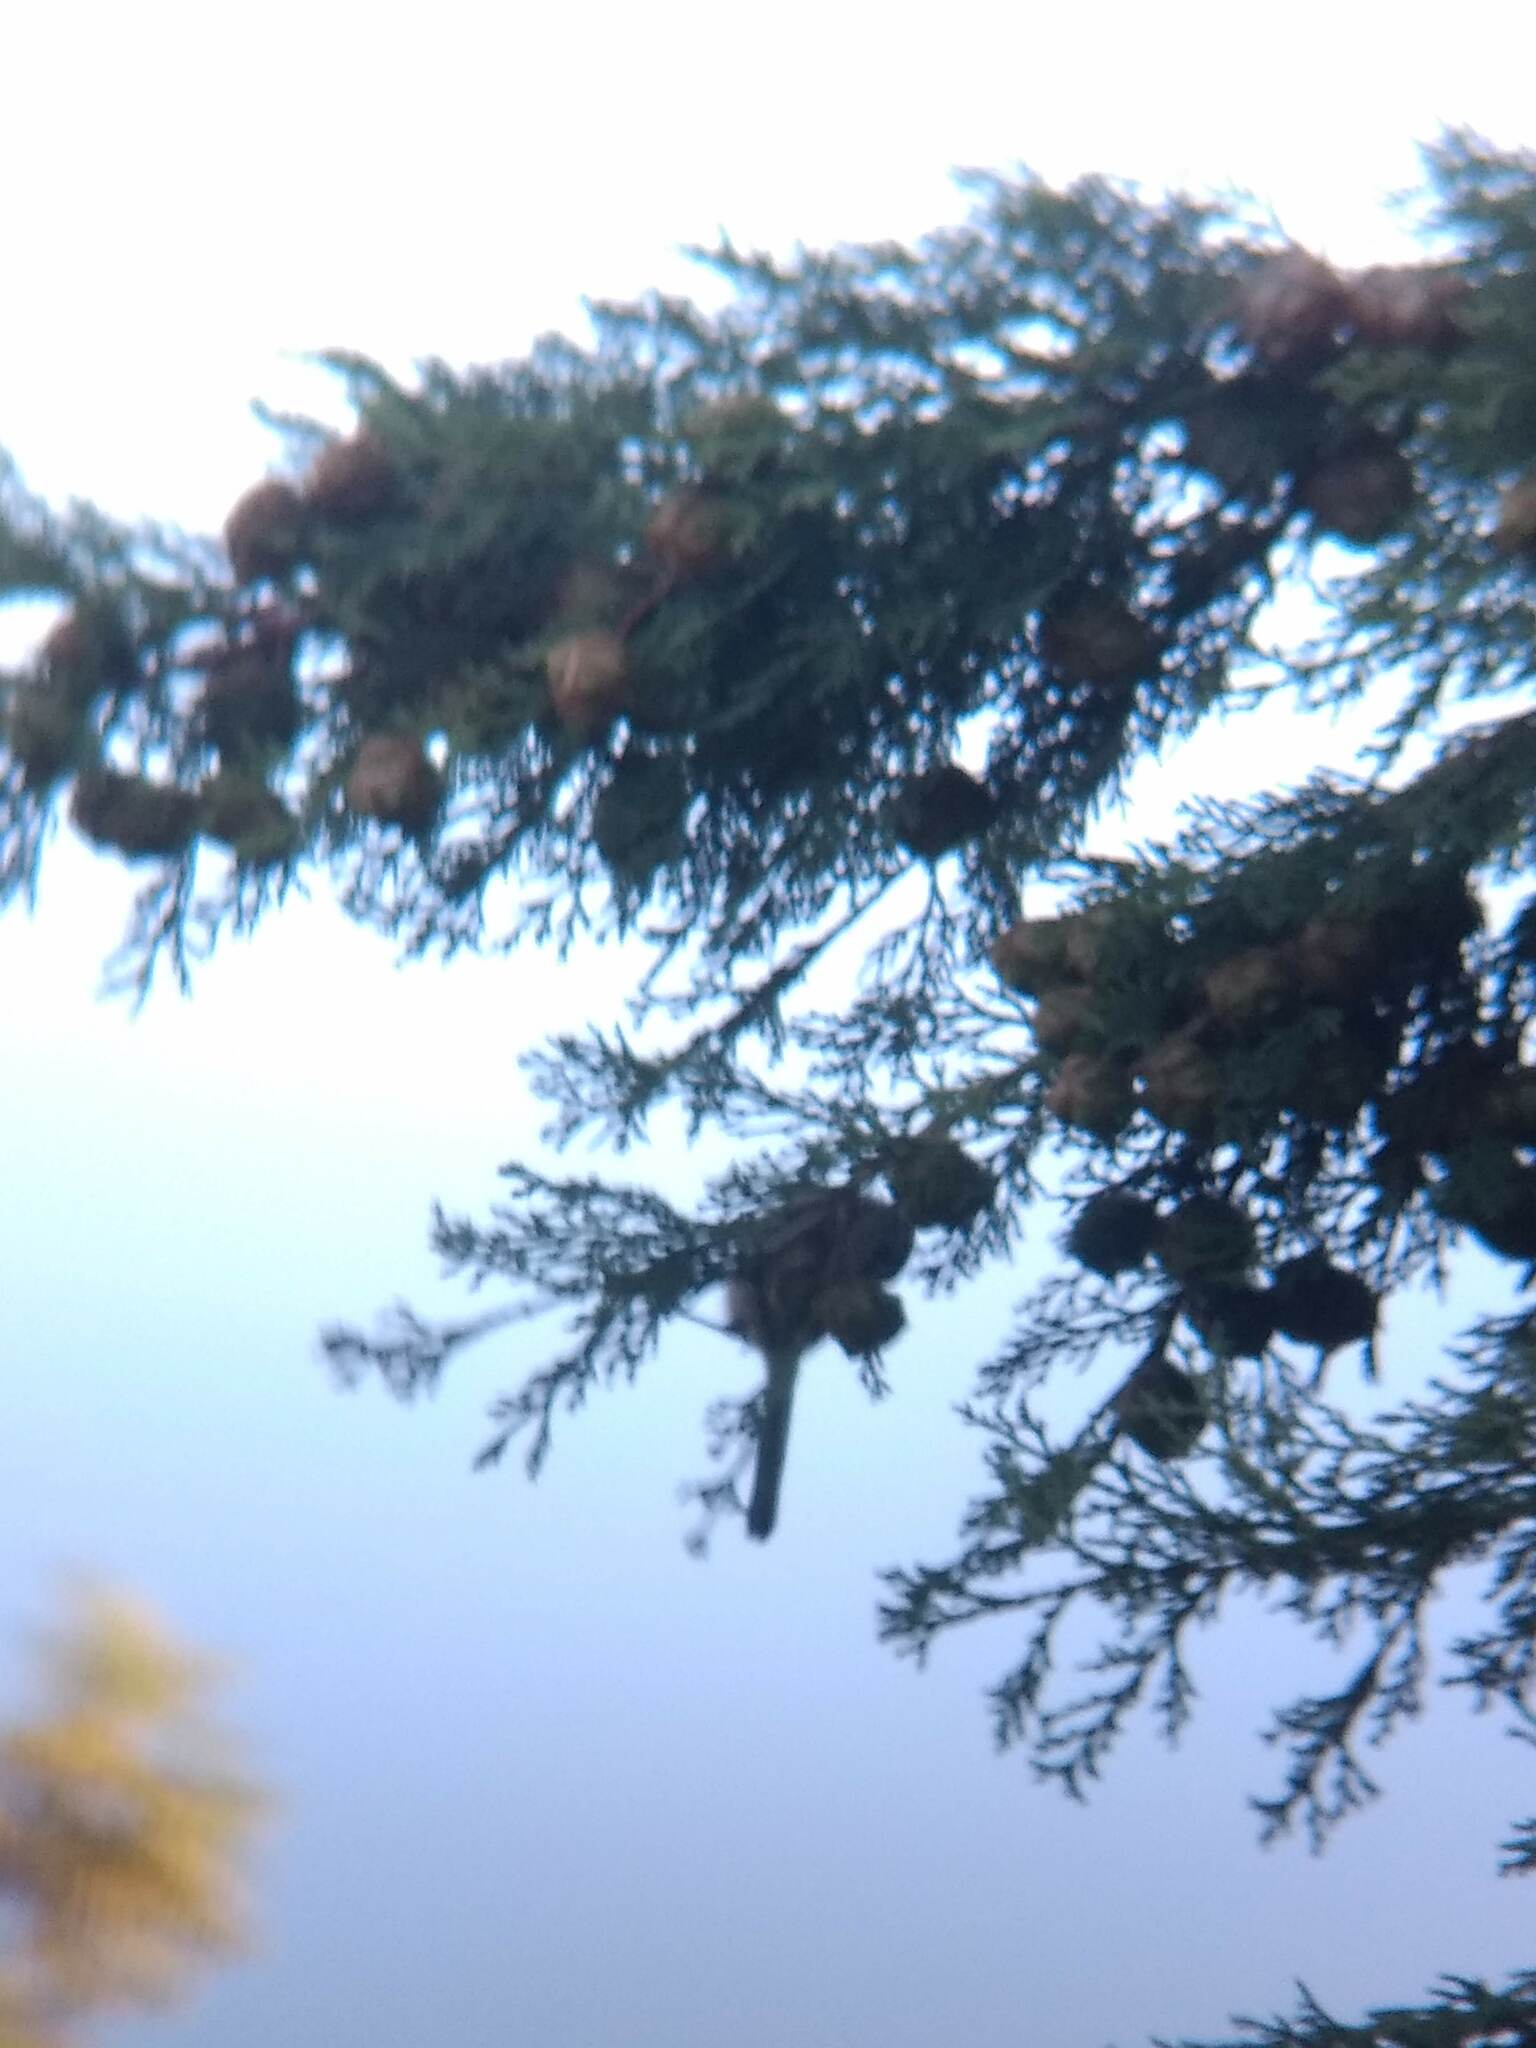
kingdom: Animalia
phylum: Chordata
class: Aves
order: Passeriformes
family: Aegithalidae
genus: Psaltriparus
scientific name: Psaltriparus minimus
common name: American bushtit
